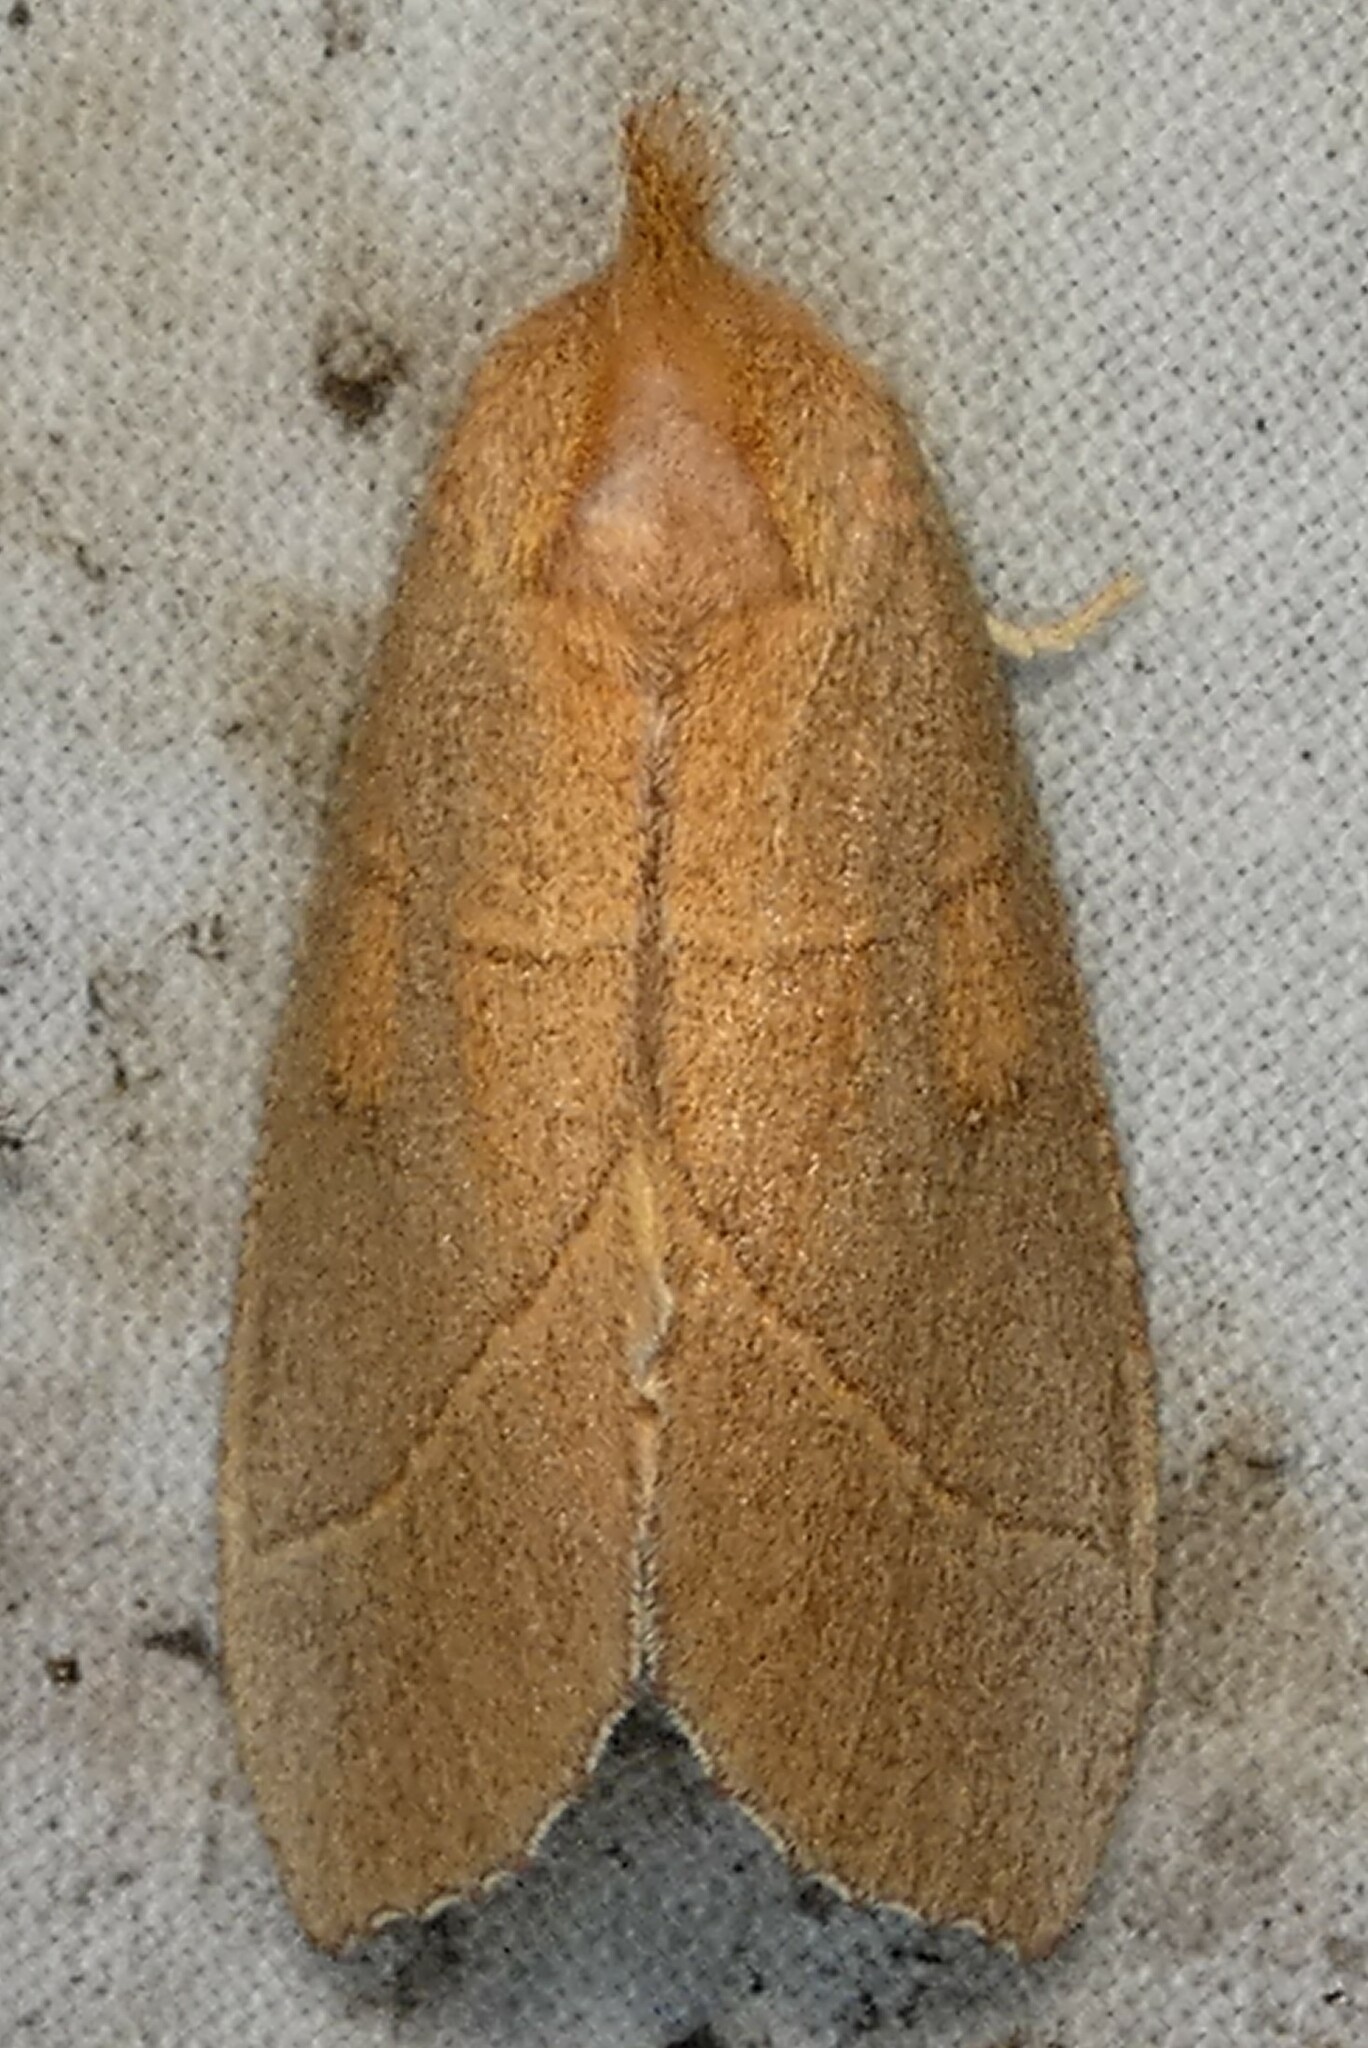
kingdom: Animalia
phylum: Arthropoda
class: Insecta
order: Lepidoptera
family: Notodontidae
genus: Nadata
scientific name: Nadata gibbosa
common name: White-dotted prominent
